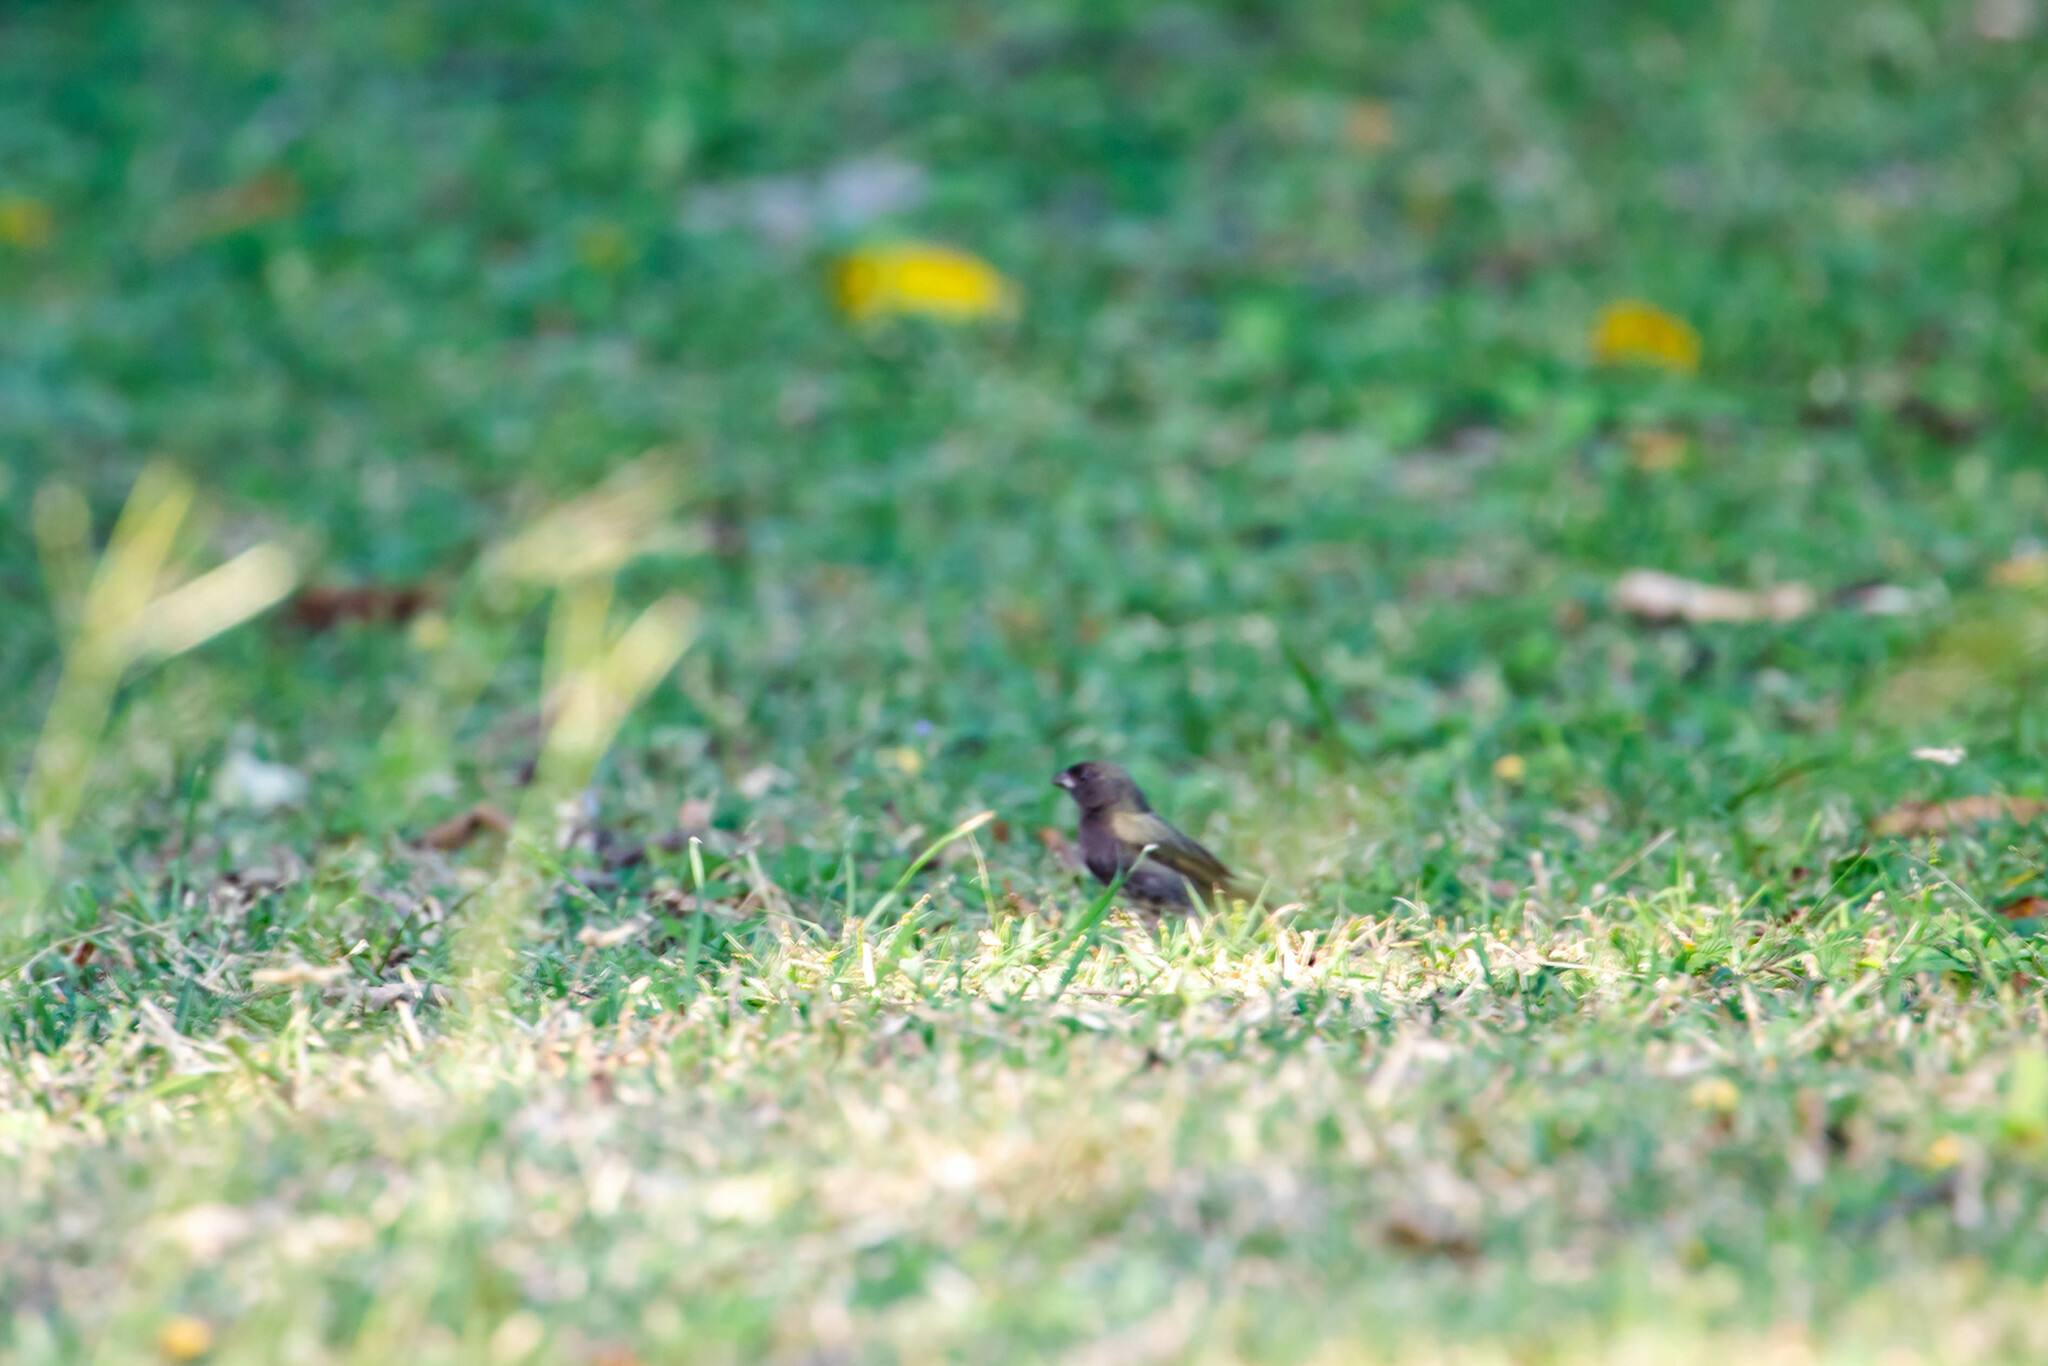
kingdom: Animalia
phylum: Chordata
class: Aves
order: Passeriformes
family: Thraupidae
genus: Melanospiza
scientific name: Melanospiza bicolor
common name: Black-faced grassquit
